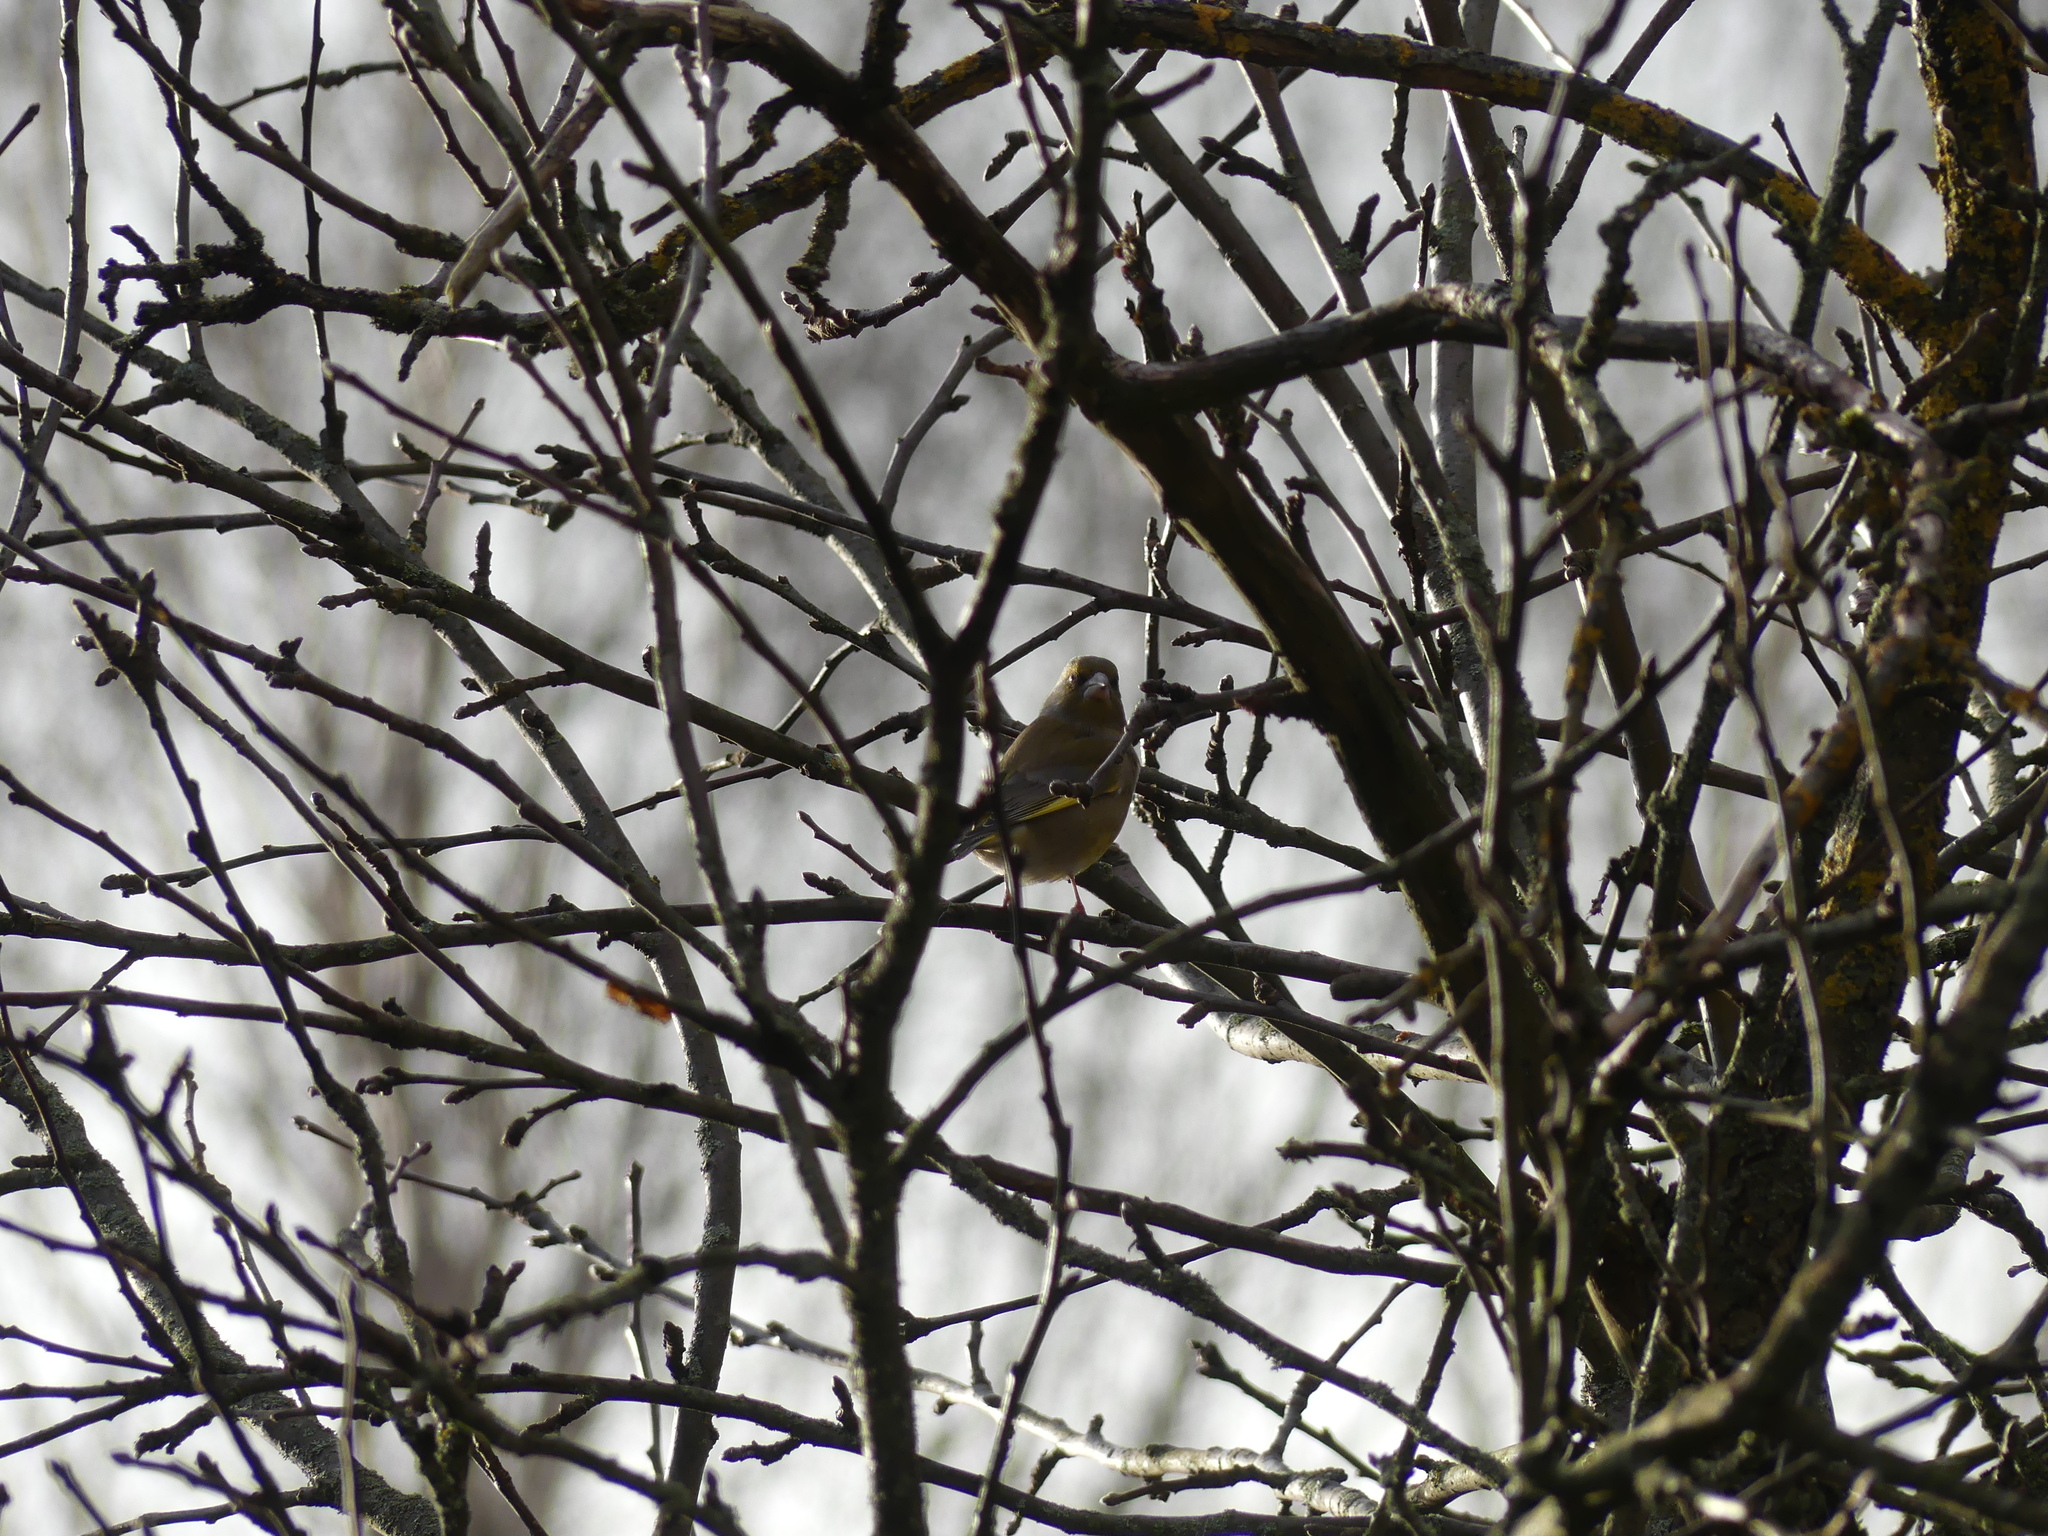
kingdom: Plantae
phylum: Tracheophyta
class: Liliopsida
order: Poales
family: Poaceae
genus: Chloris
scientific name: Chloris chloris
